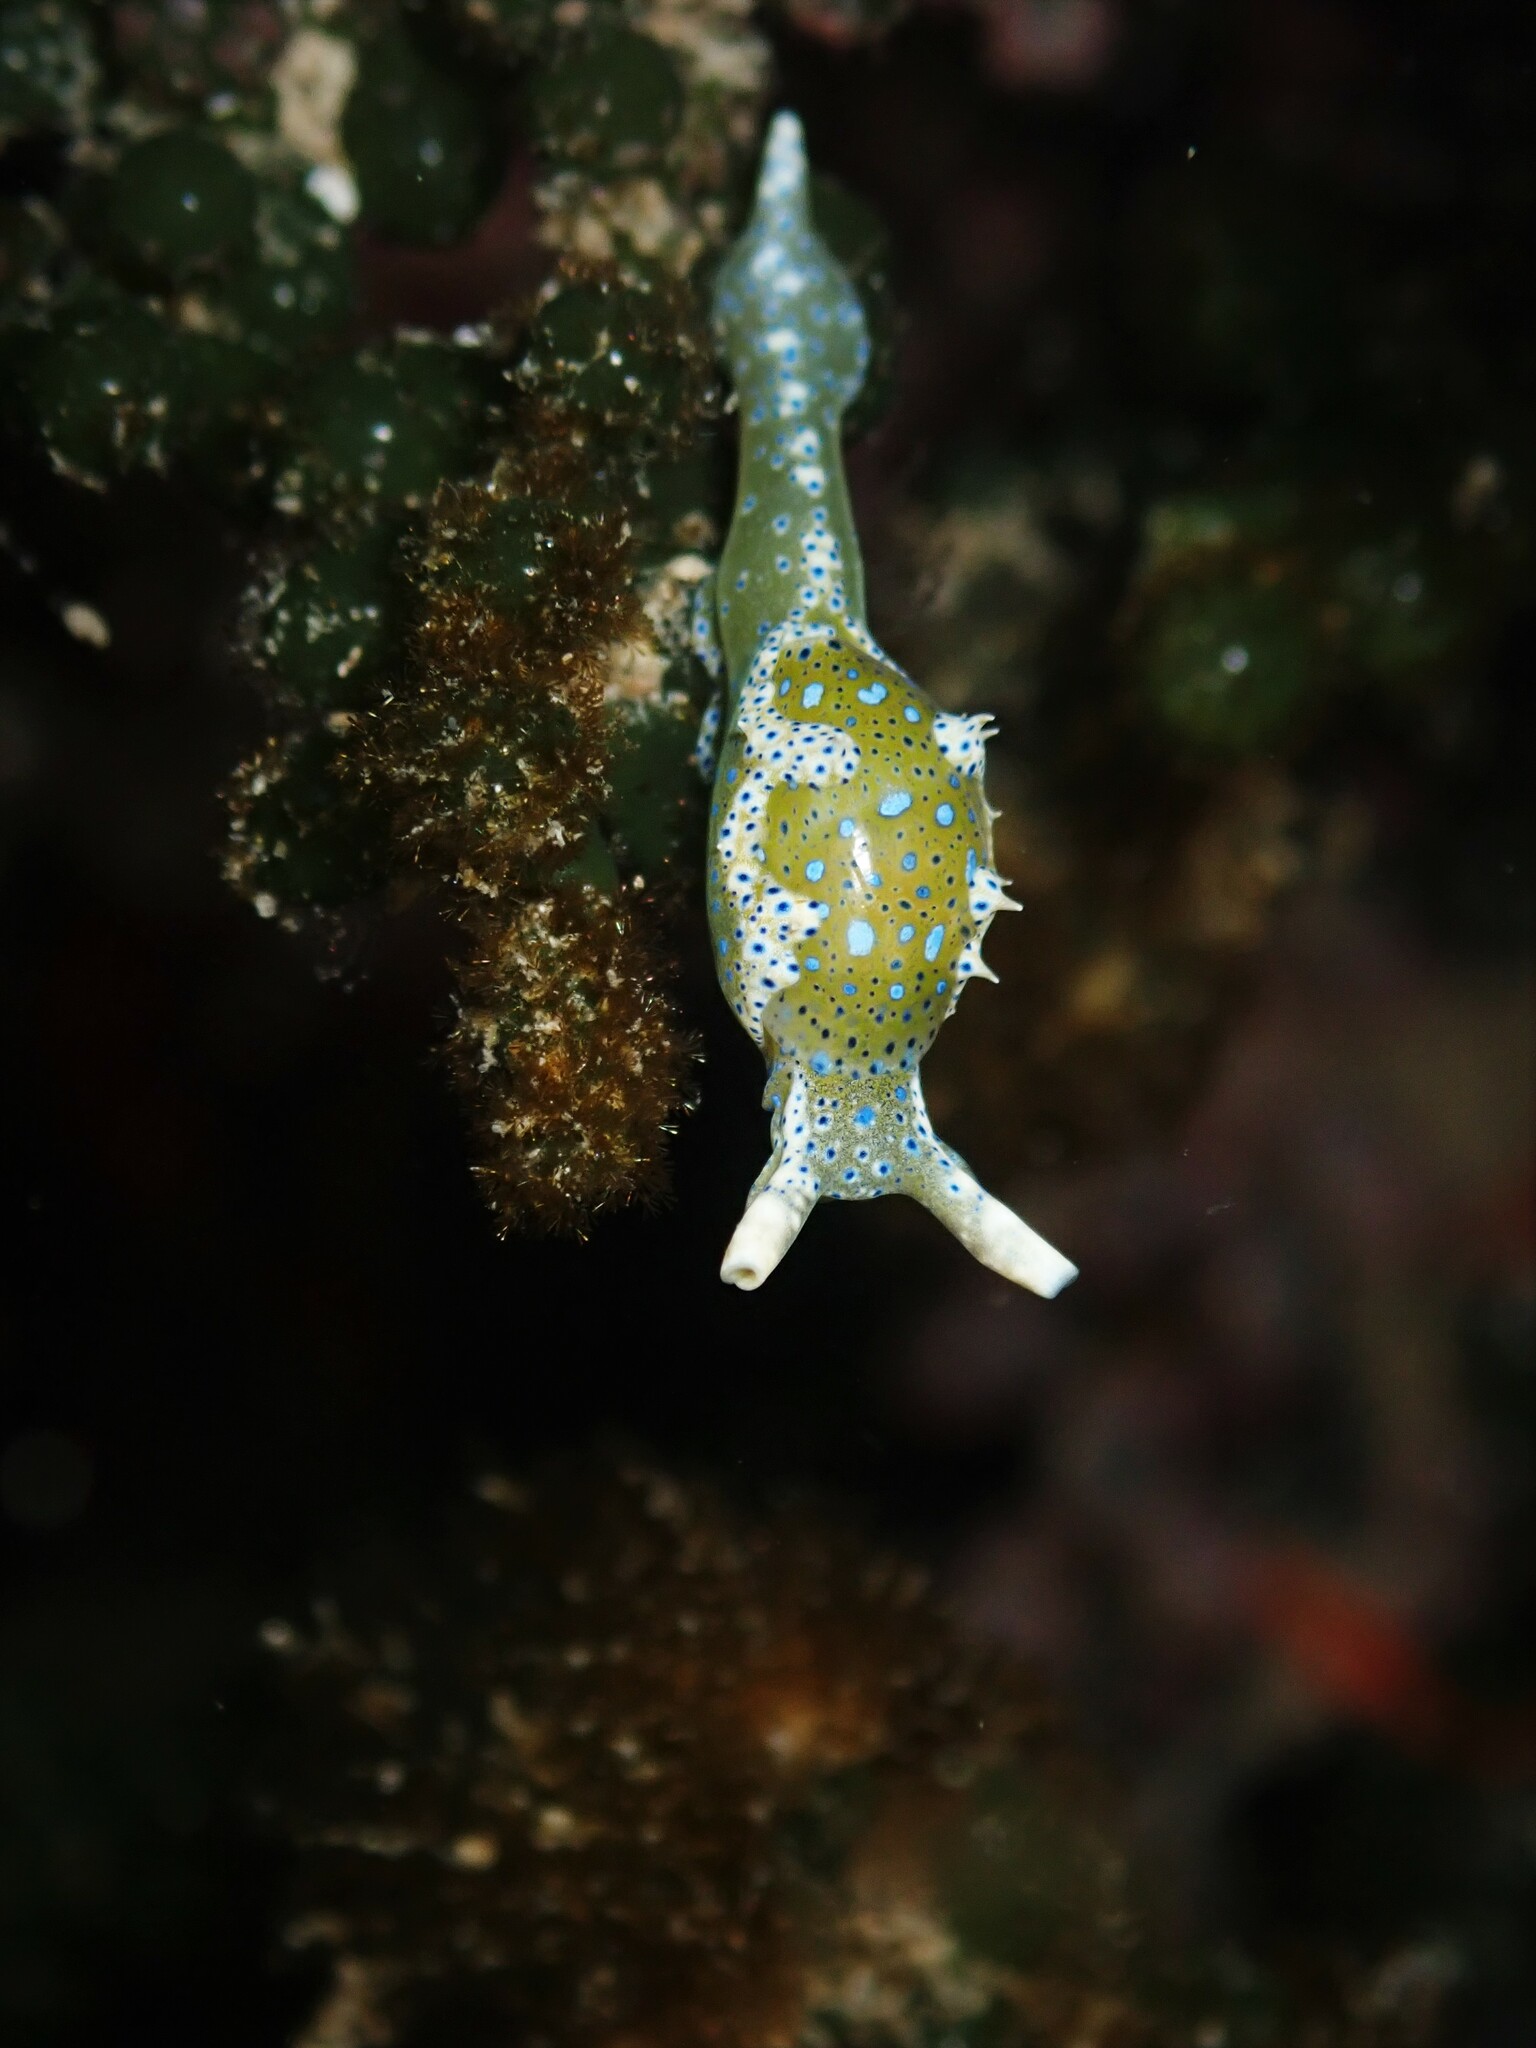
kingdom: Animalia
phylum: Mollusca
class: Gastropoda
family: Oxynoidae
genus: Oxynoe
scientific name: Oxynoe viridis
